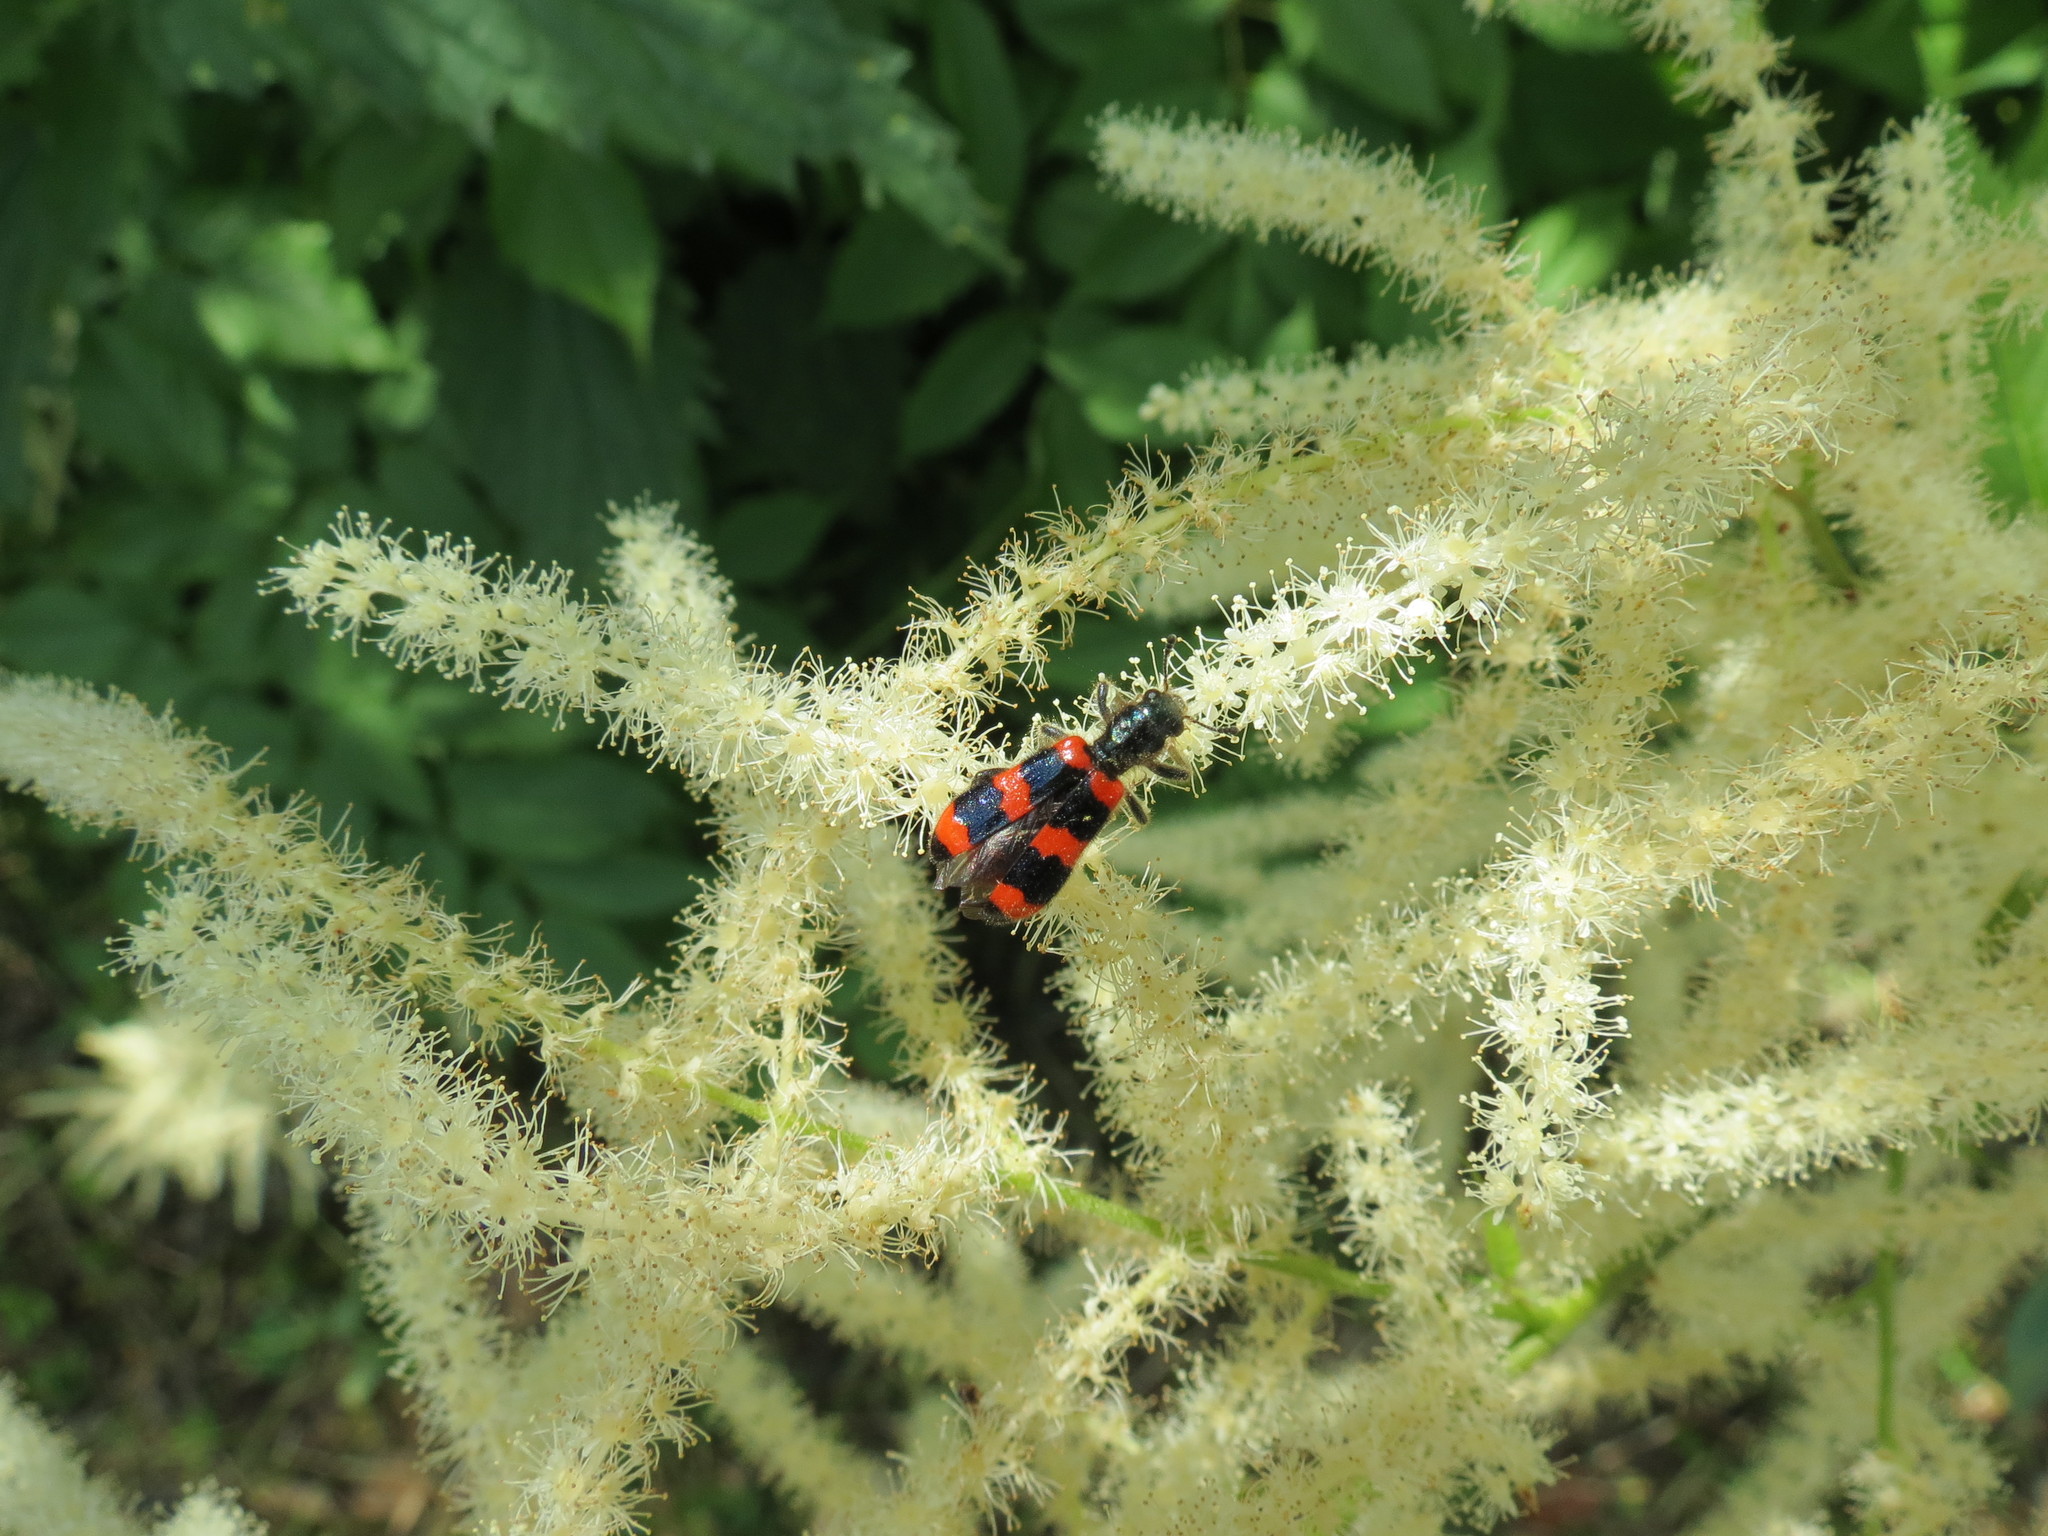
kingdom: Animalia
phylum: Arthropoda
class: Insecta
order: Coleoptera
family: Cleridae
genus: Trichodes
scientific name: Trichodes apiarius
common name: Bee-eating beetle
